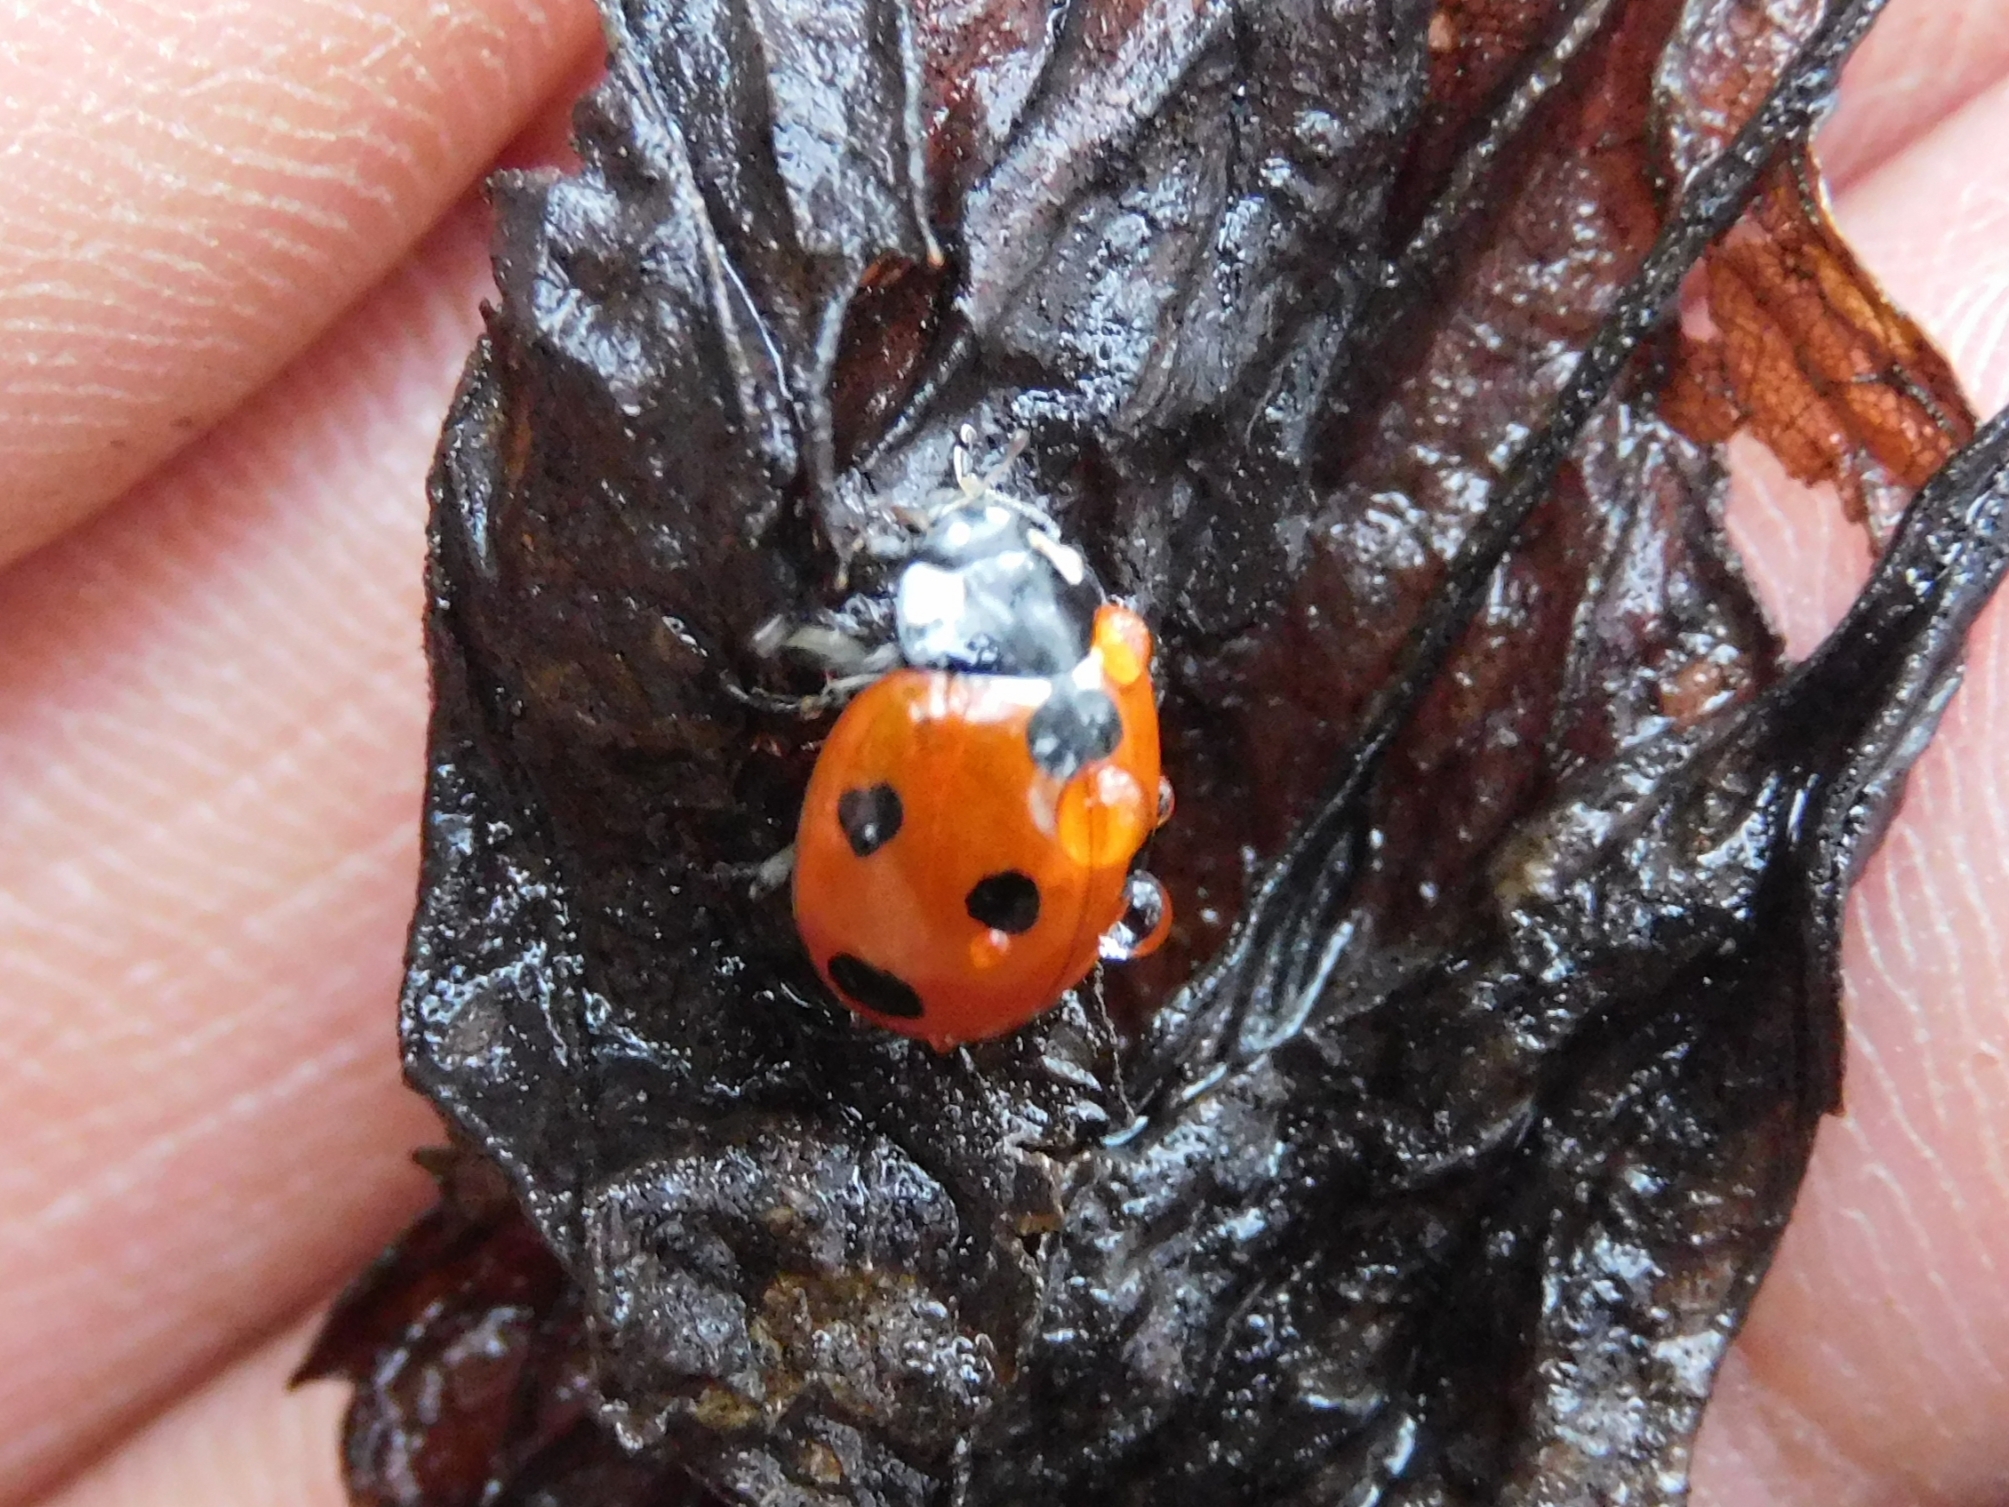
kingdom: Animalia
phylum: Arthropoda
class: Insecta
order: Coleoptera
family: Coccinellidae
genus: Coccinella
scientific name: Coccinella septempunctata
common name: Sevenspotted lady beetle
